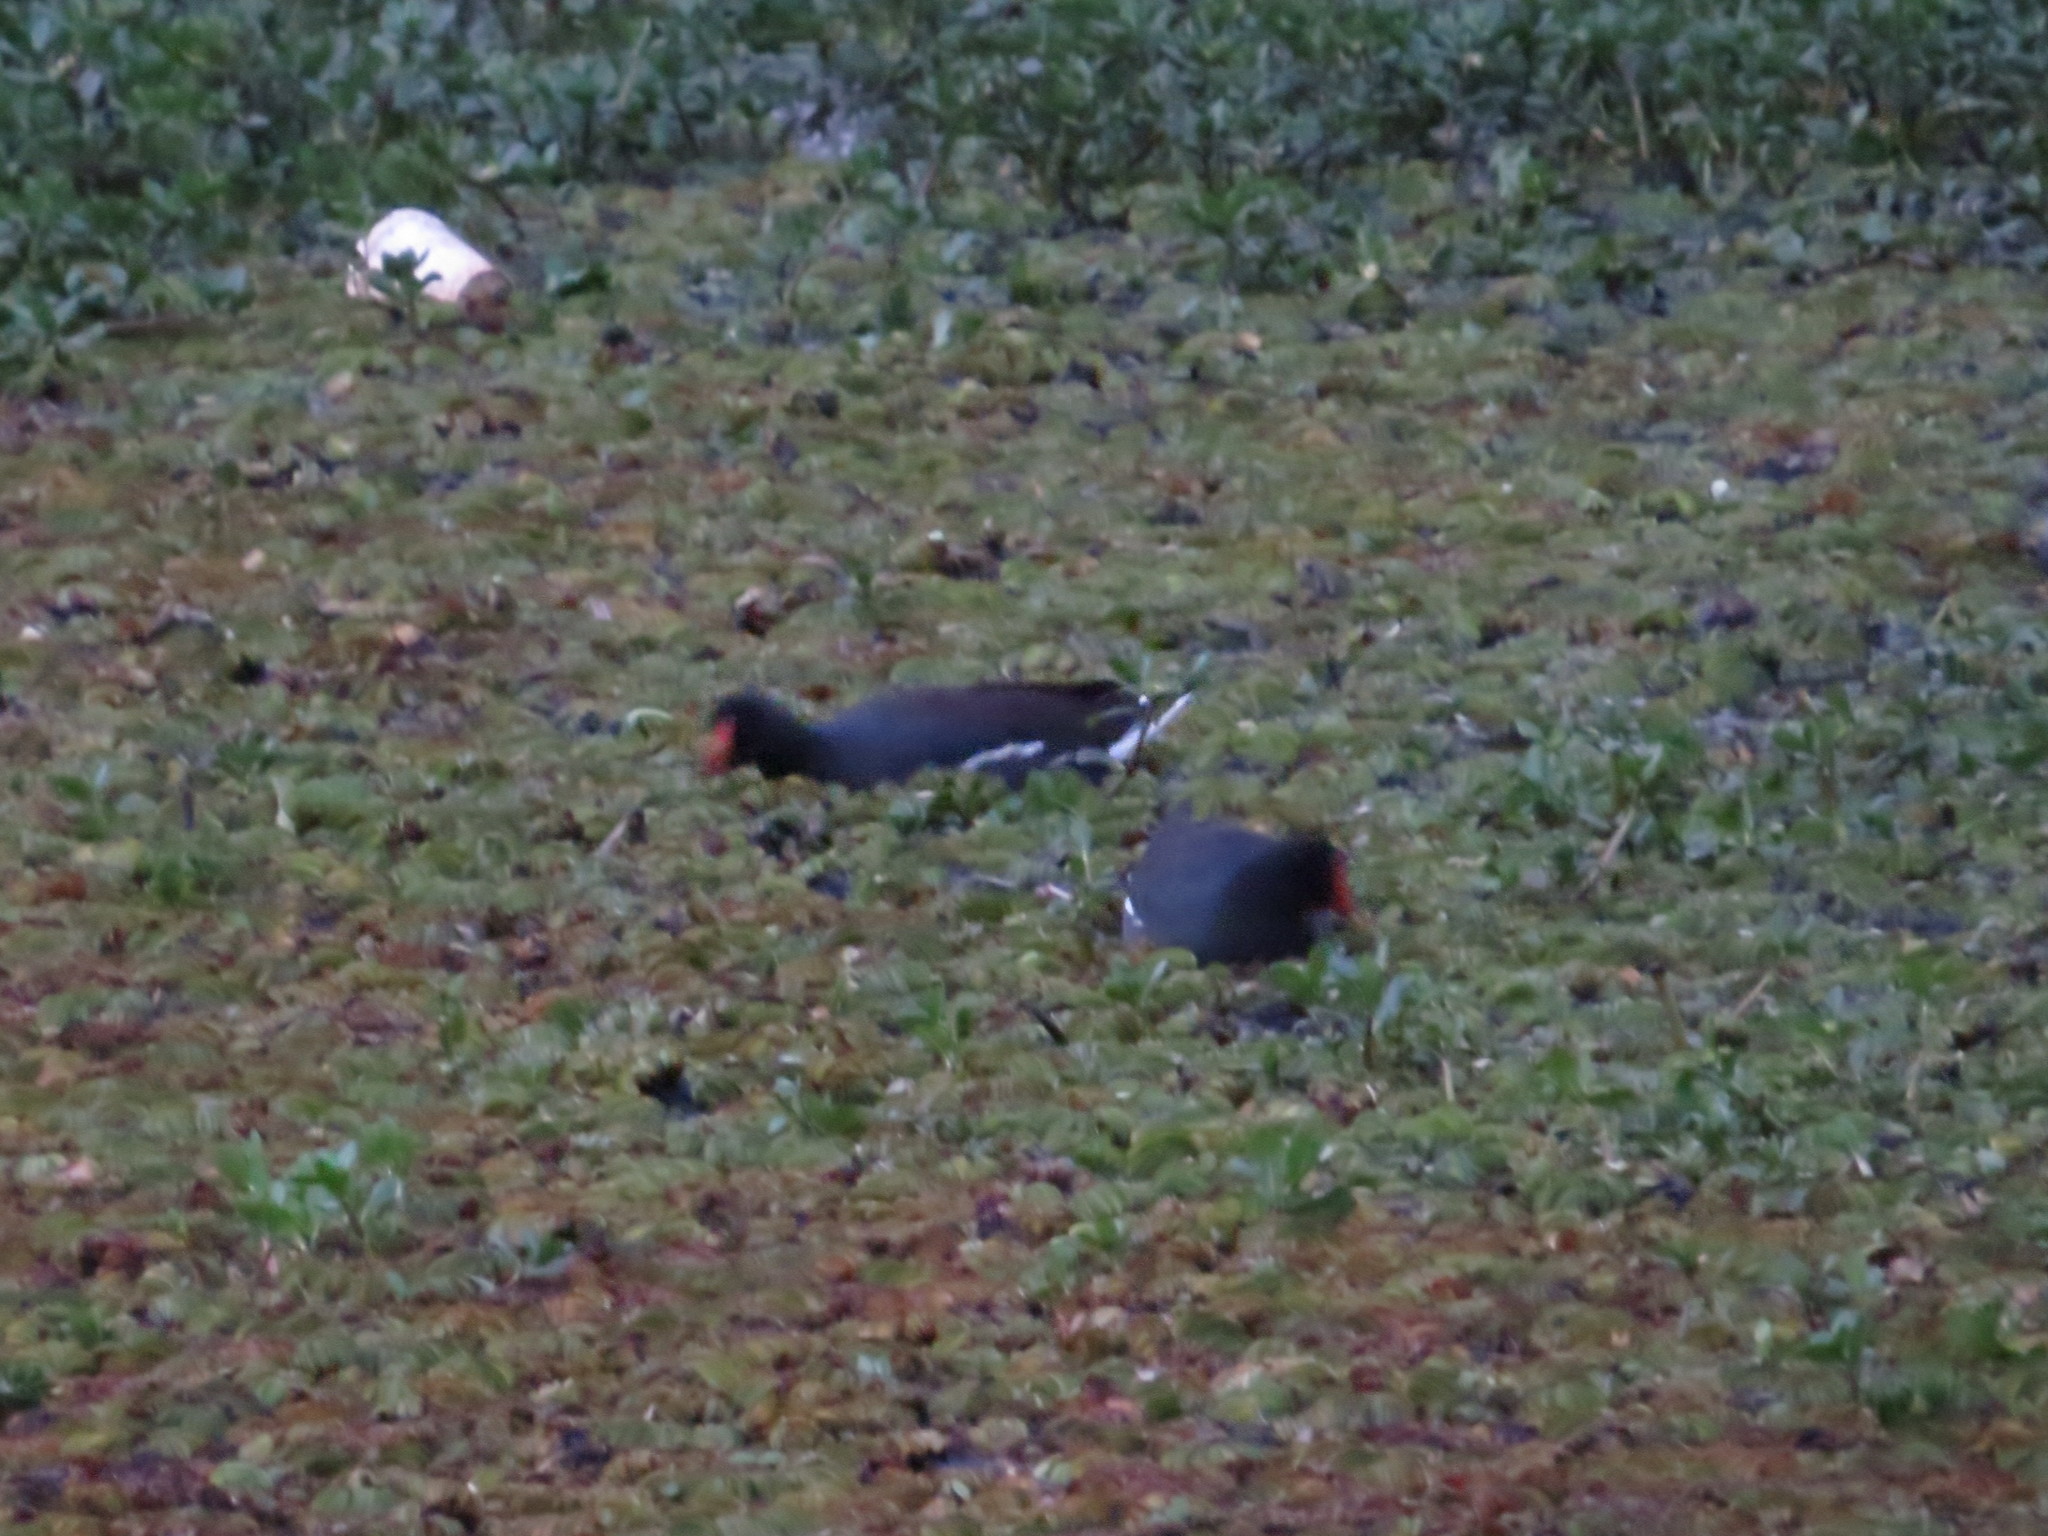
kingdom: Animalia
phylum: Chordata
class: Aves
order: Gruiformes
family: Rallidae
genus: Gallinula
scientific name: Gallinula chloropus
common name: Common moorhen
